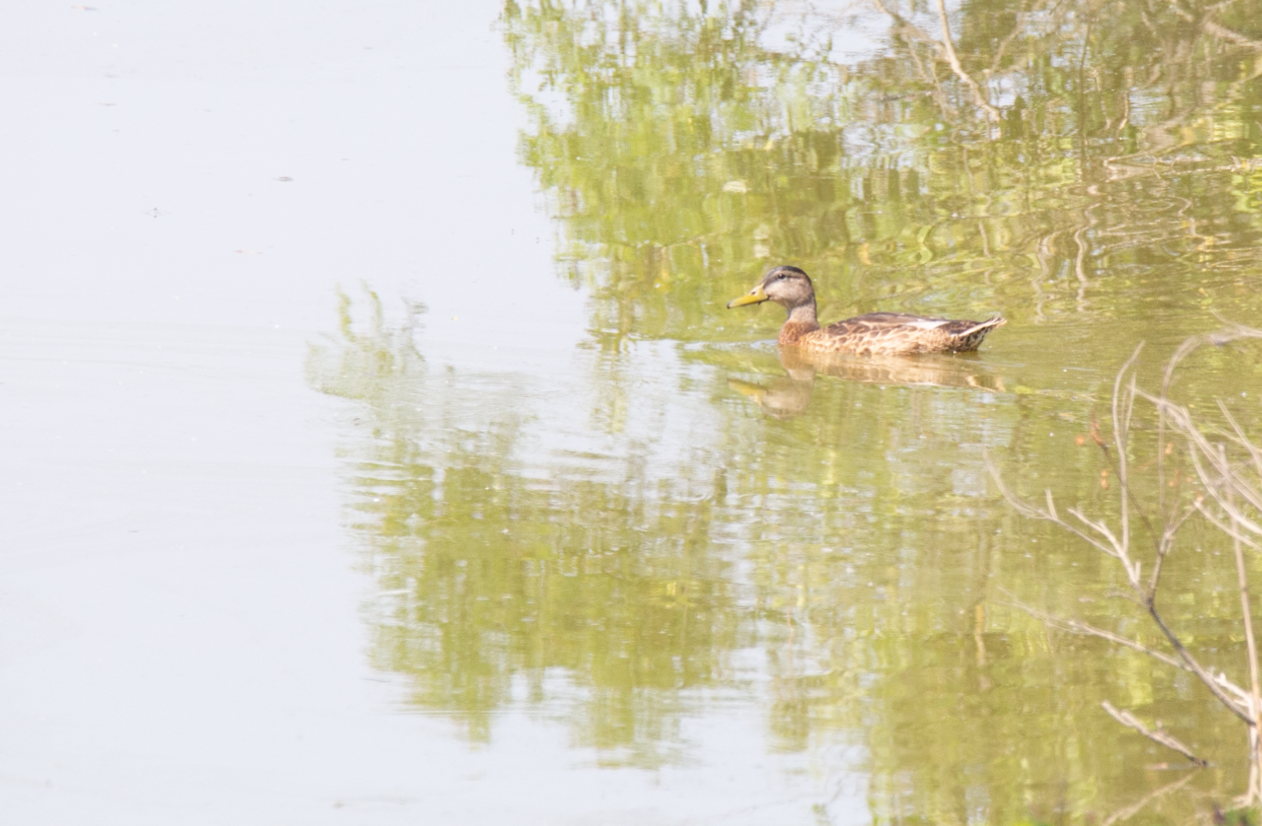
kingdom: Animalia
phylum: Chordata
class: Aves
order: Anseriformes
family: Anatidae
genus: Anas
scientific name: Anas platyrhynchos
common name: Mallard
